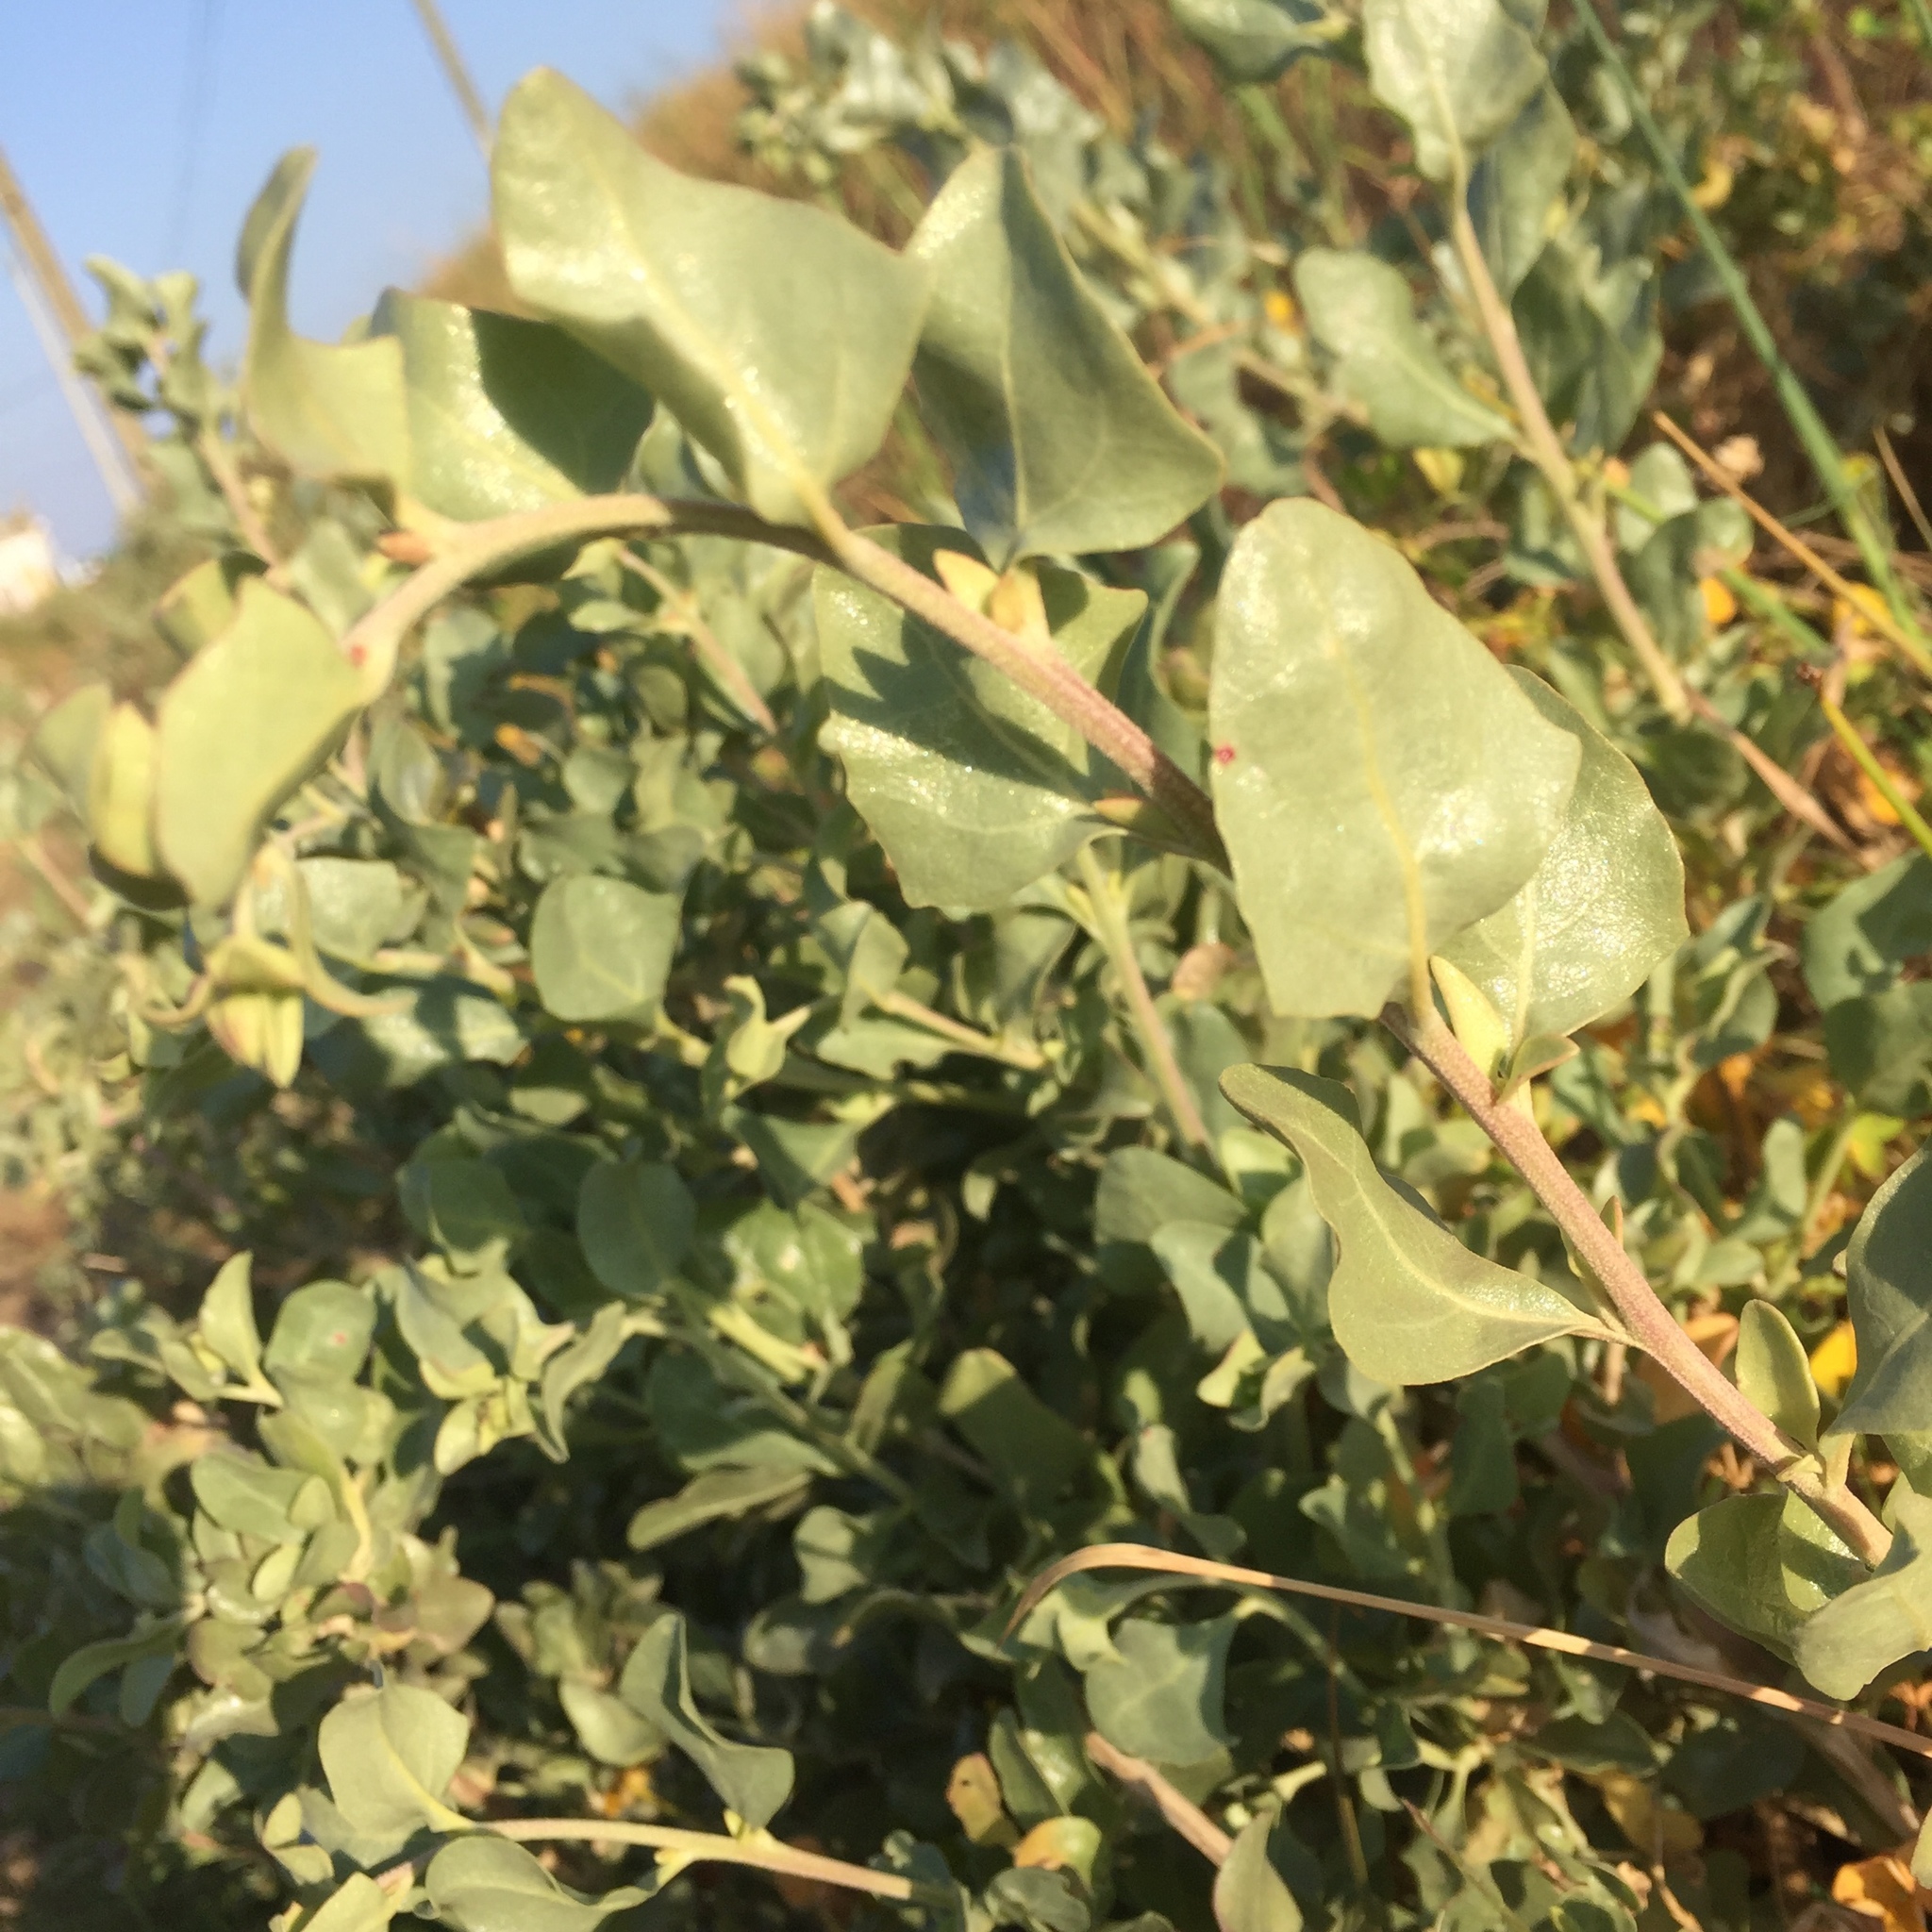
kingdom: Plantae
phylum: Tracheophyta
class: Magnoliopsida
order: Caryophyllales
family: Amaranthaceae
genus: Atriplex
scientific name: Atriplex halimus
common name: Shrubby orache
